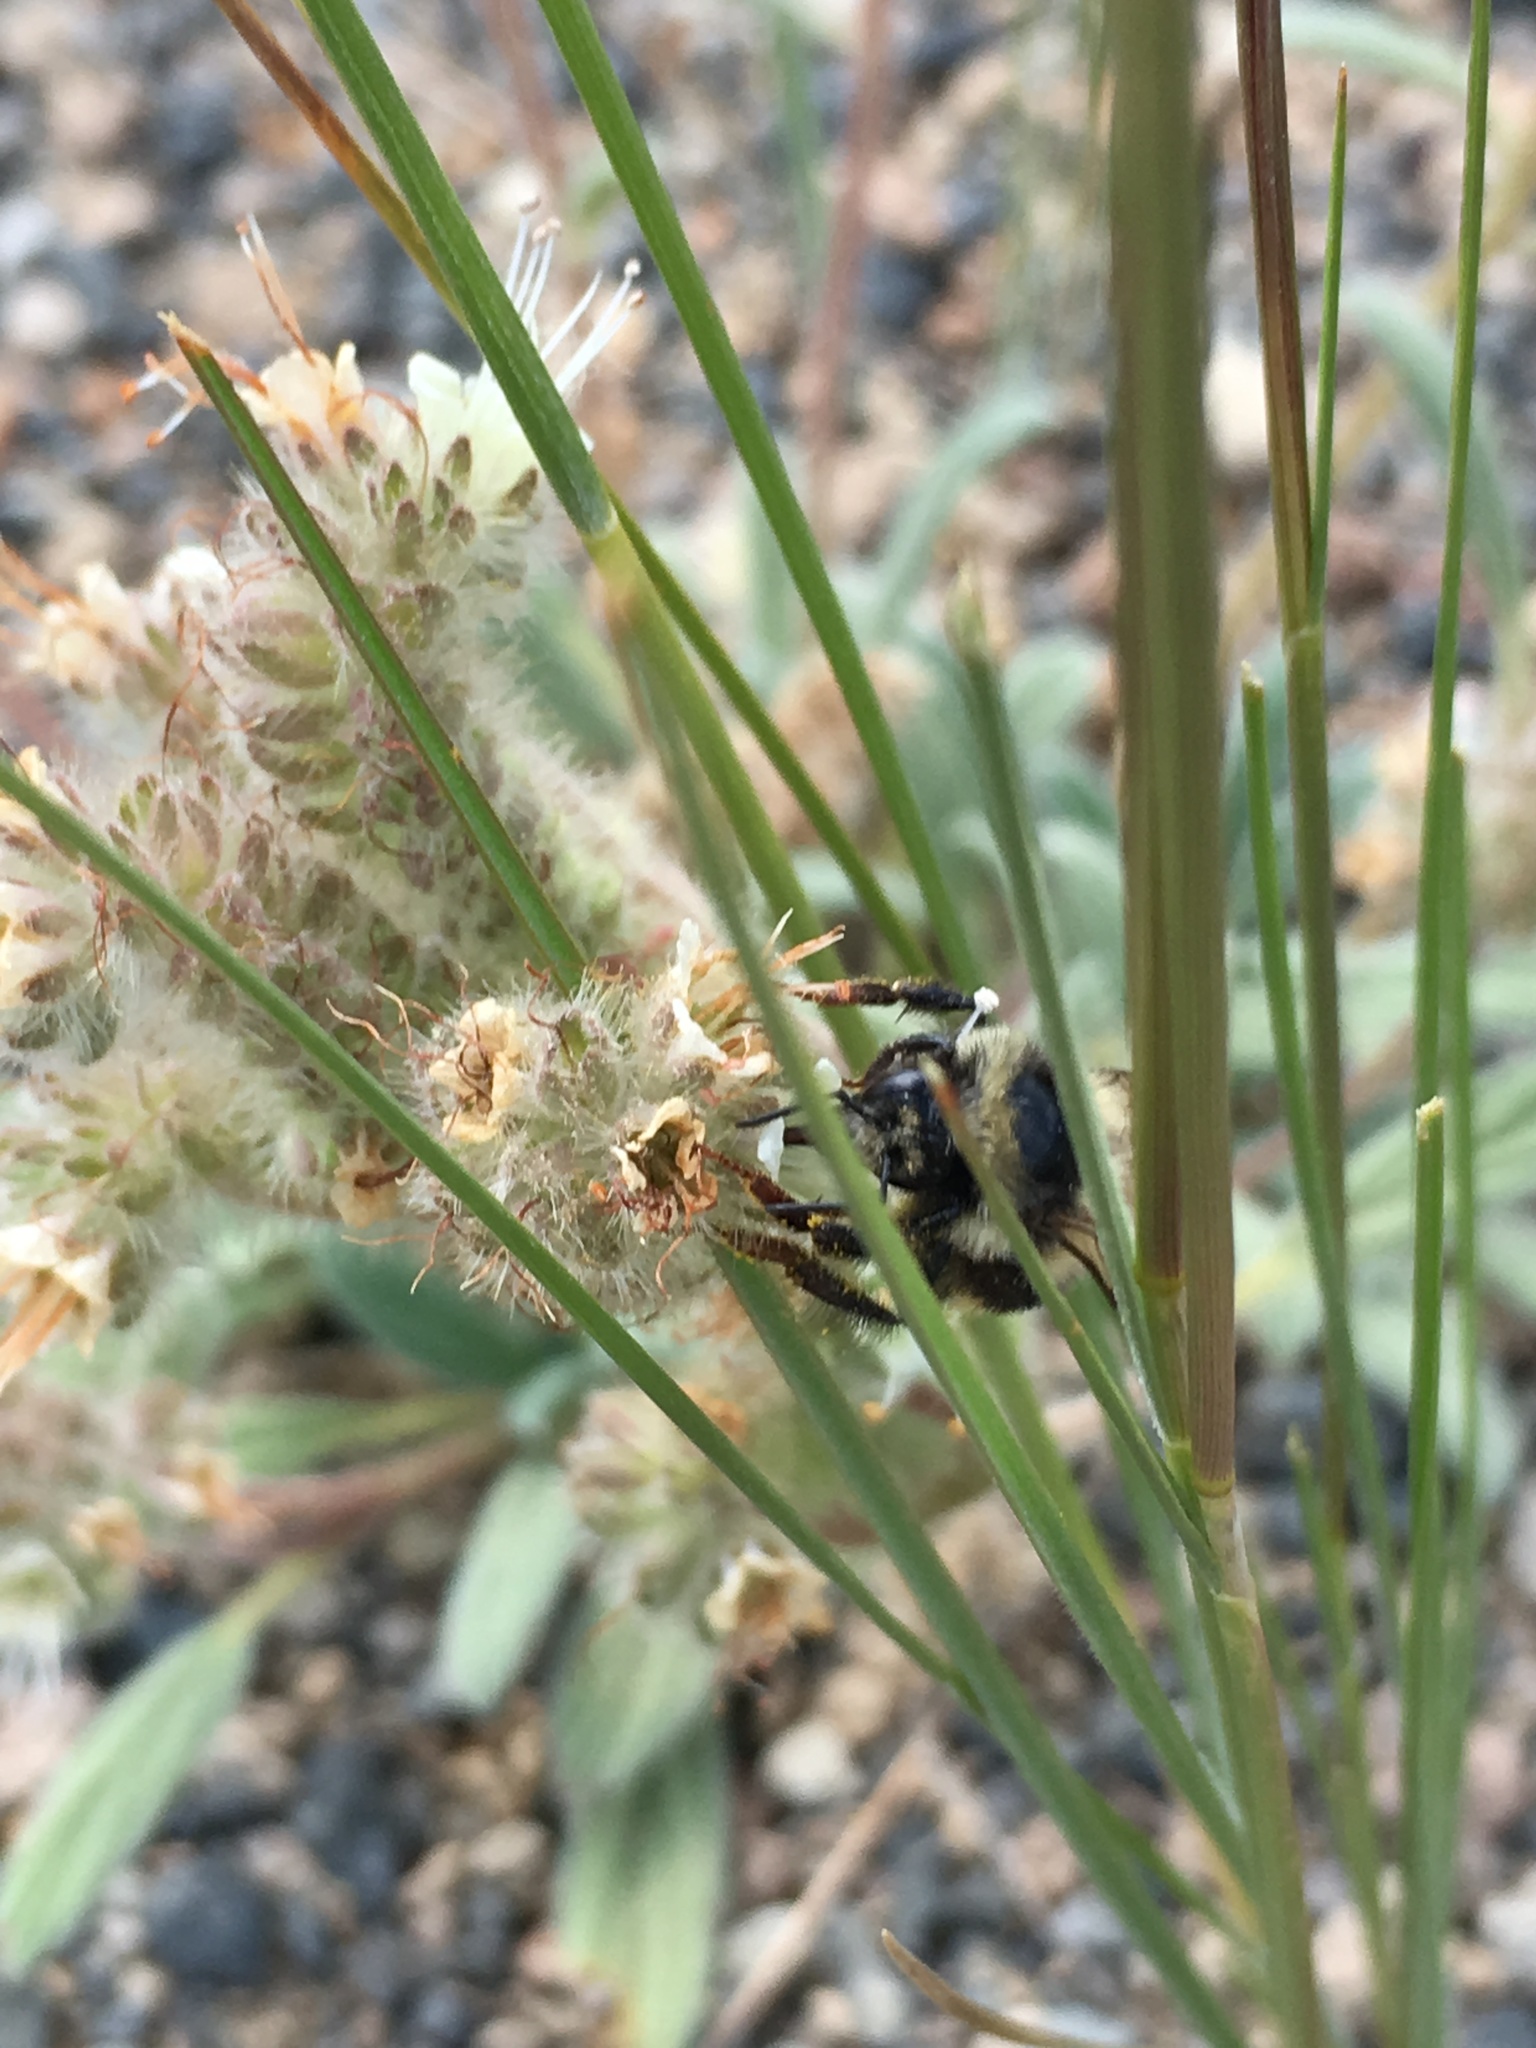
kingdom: Animalia
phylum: Arthropoda
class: Insecta
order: Hymenoptera
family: Apidae
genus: Bombus
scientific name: Bombus vancouverensis
